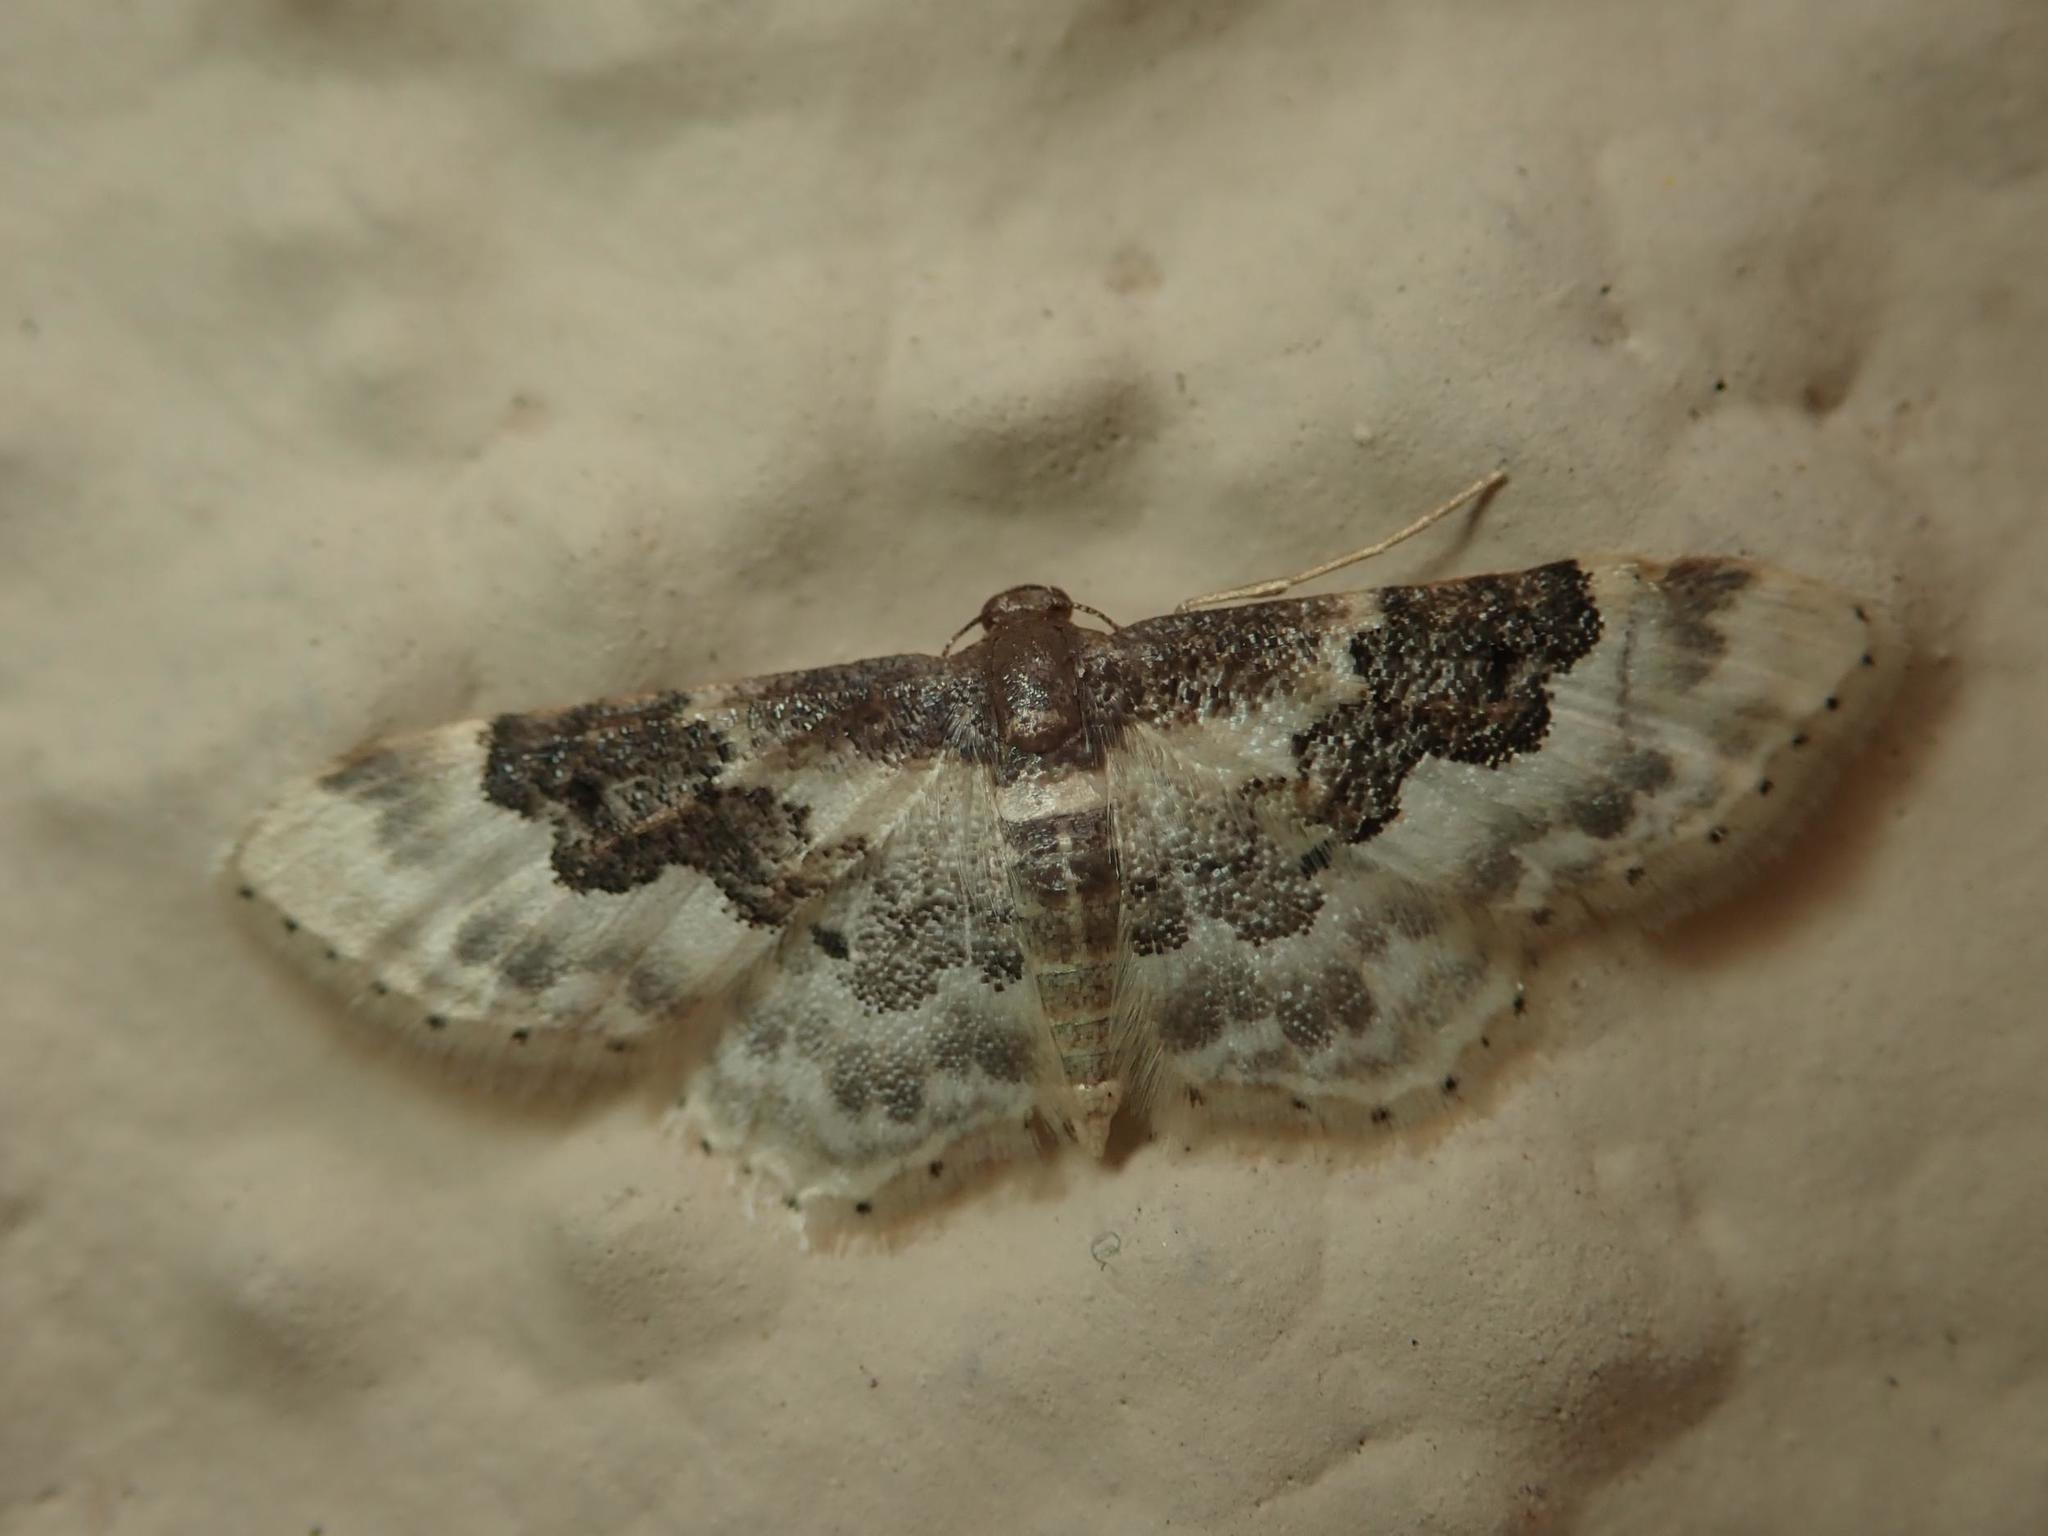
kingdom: Animalia
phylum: Arthropoda
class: Insecta
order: Lepidoptera
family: Geometridae
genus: Idaea
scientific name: Idaea rusticata
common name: Least carpet
